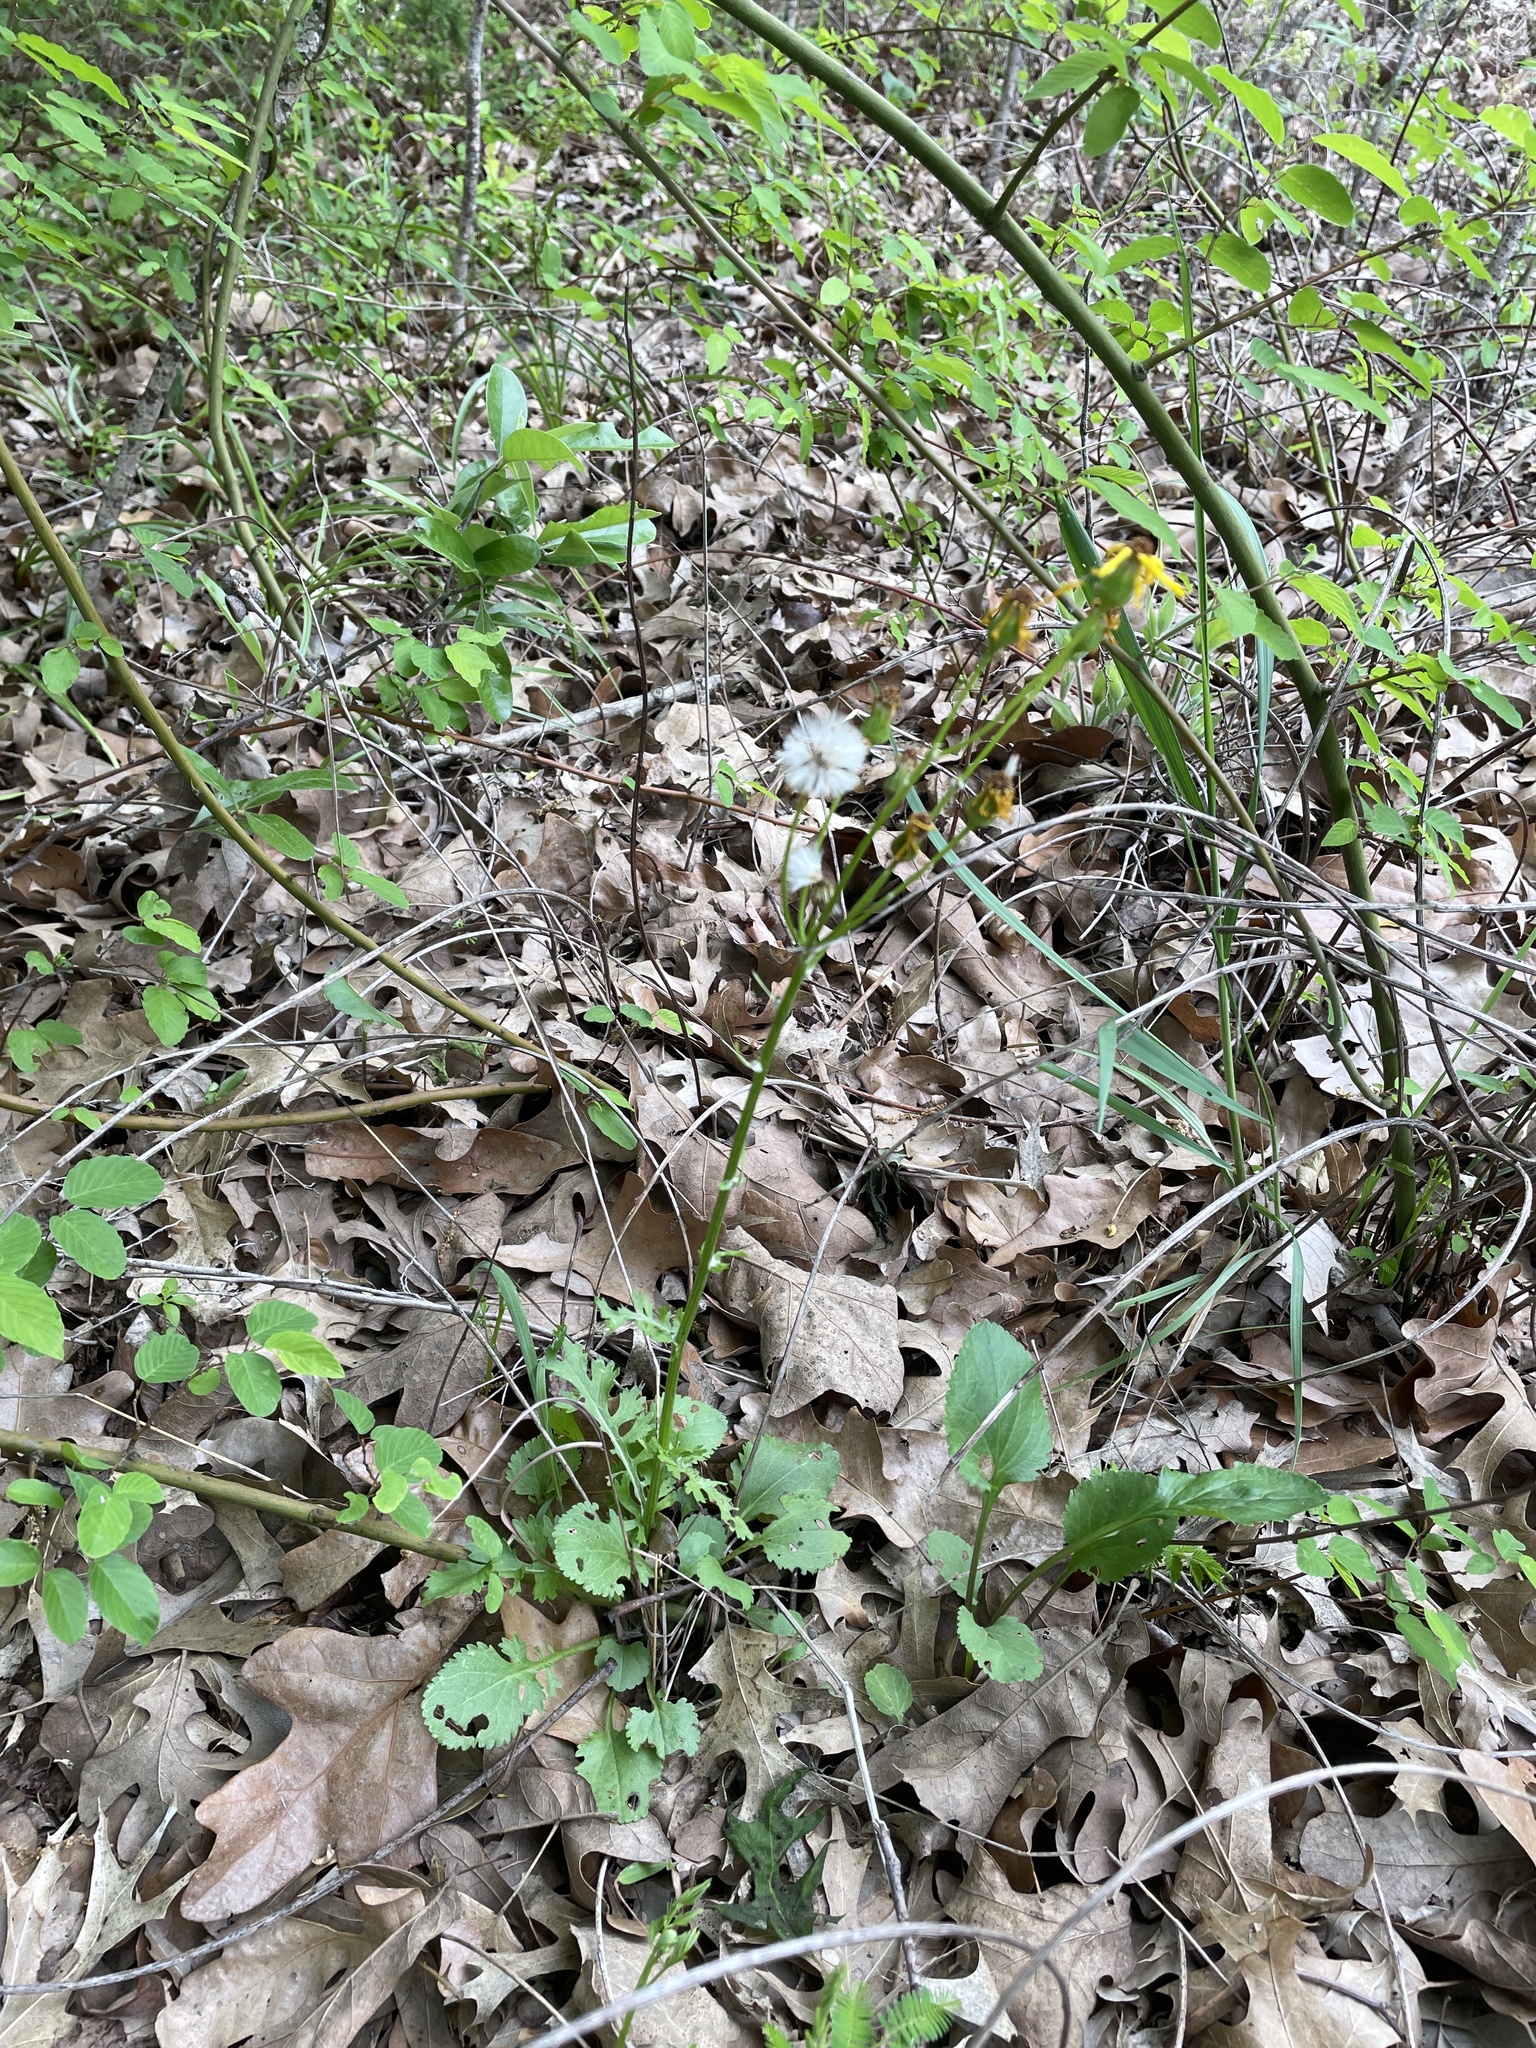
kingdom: Plantae
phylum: Tracheophyta
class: Magnoliopsida
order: Asterales
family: Asteraceae
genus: Packera
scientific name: Packera obovata
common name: Round-leaf ragwort
